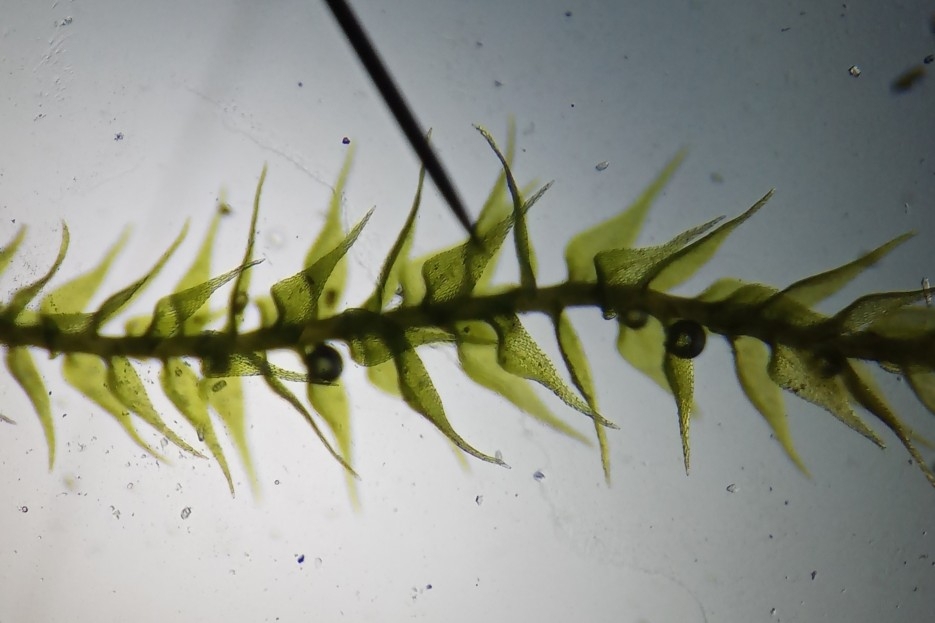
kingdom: Plantae
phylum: Bryophyta
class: Bryopsida
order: Hypnales
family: Amblystegiaceae
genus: Amblystegium
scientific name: Amblystegium serpens
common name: Jurkatzka's feather moss
